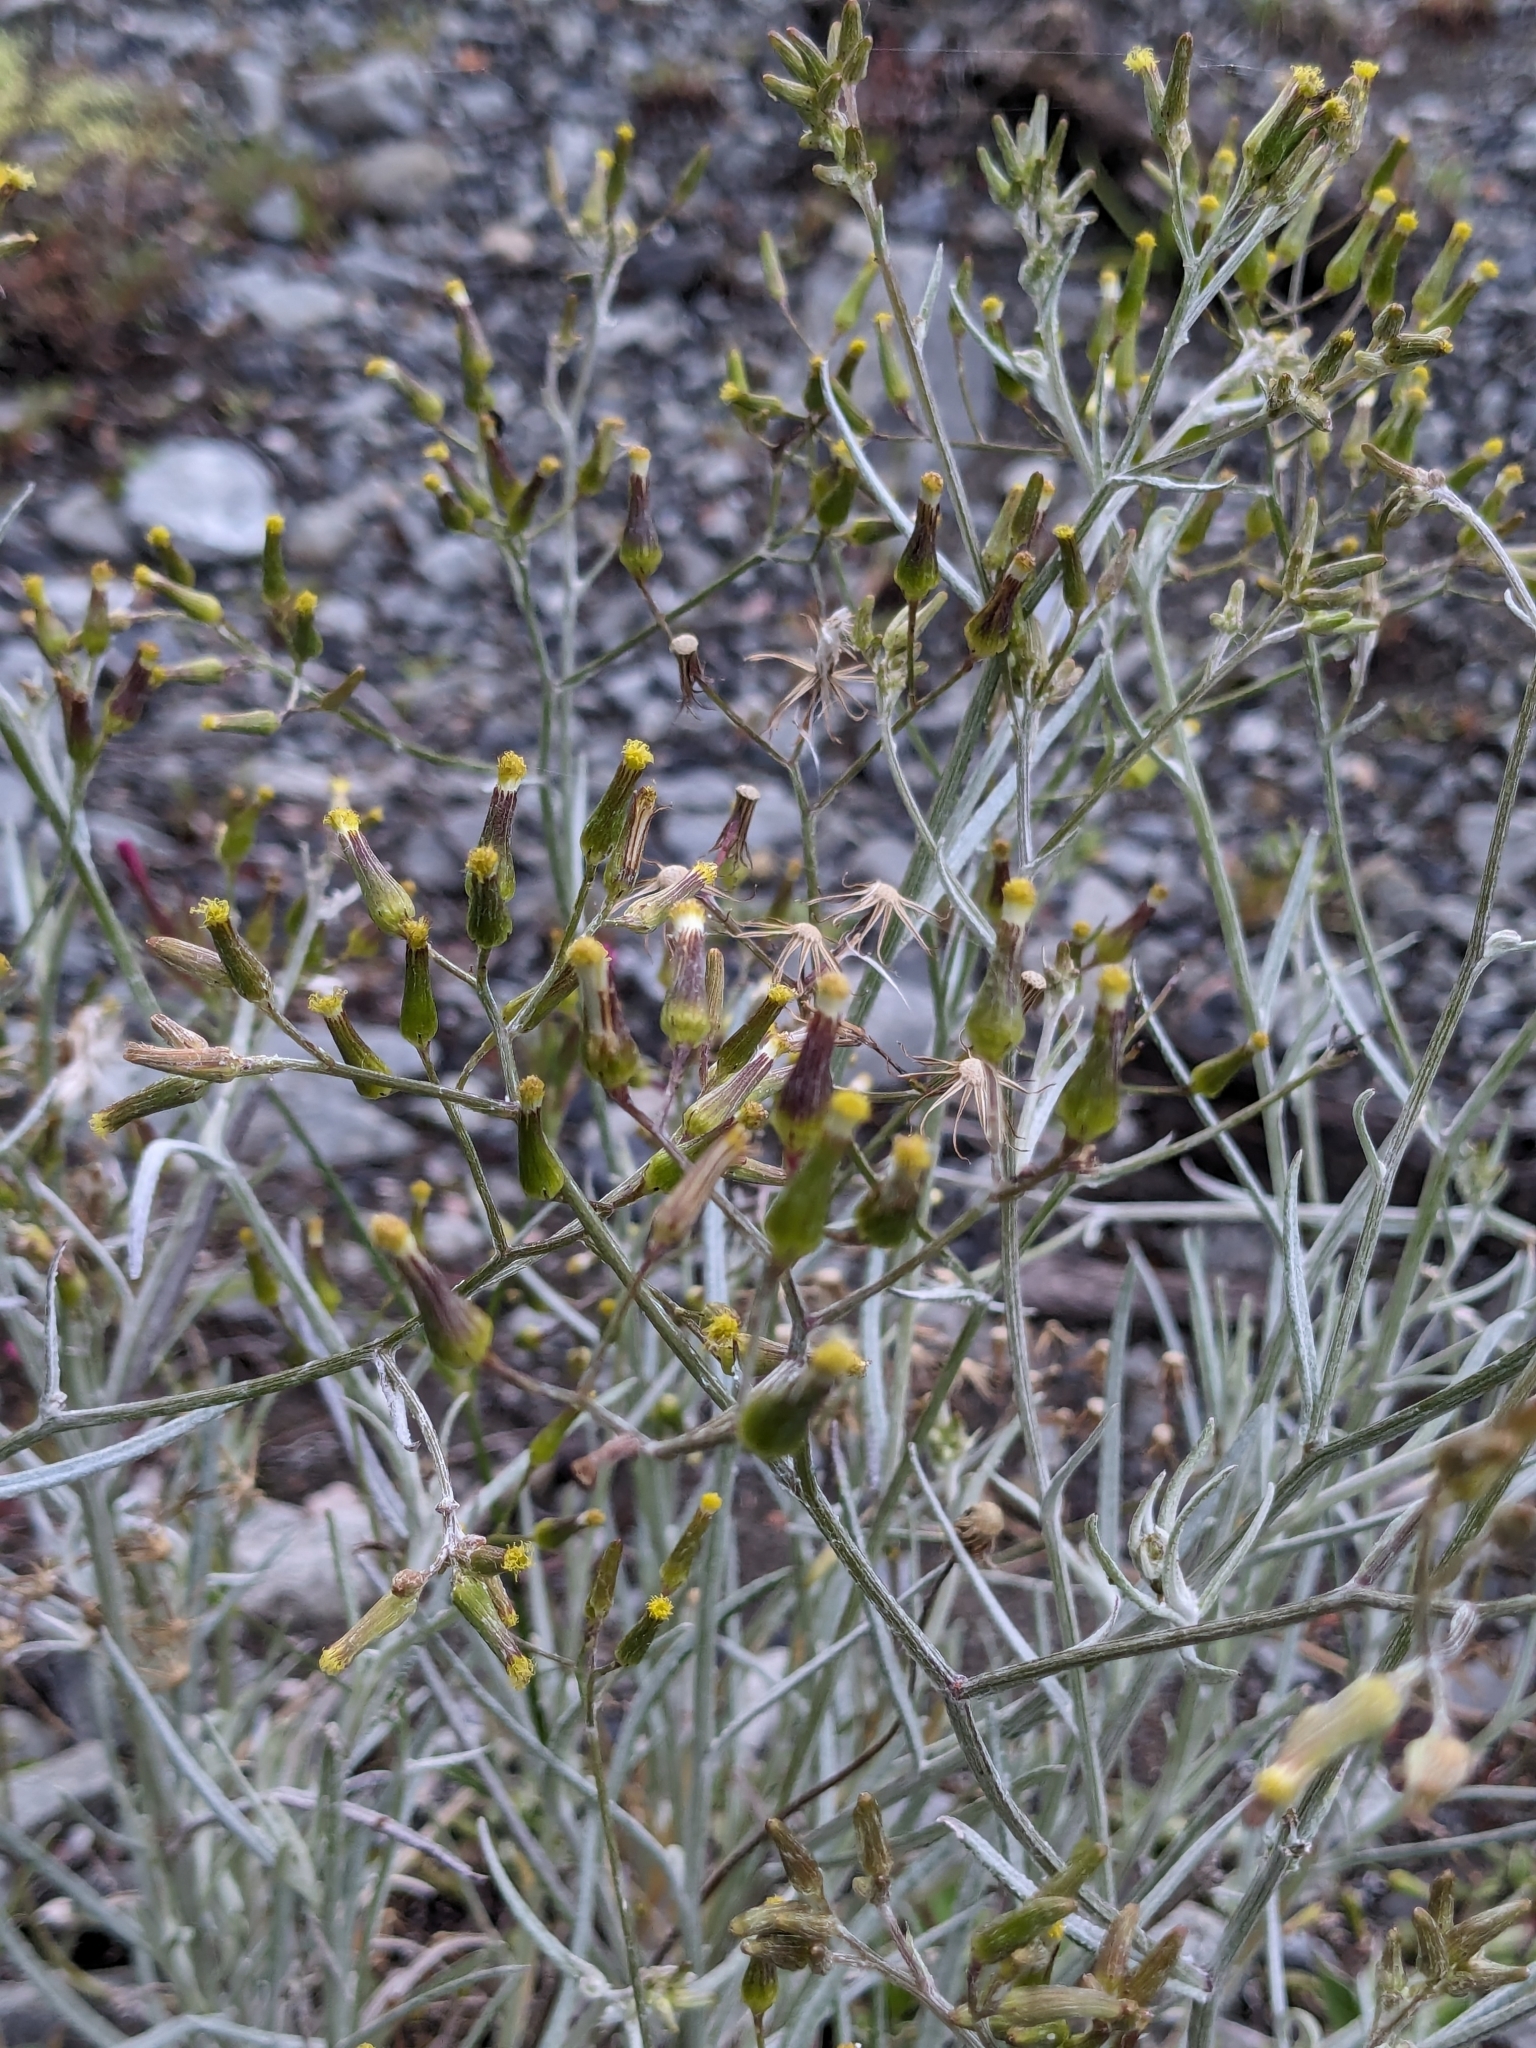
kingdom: Plantae
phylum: Tracheophyta
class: Magnoliopsida
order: Asterales
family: Asteraceae
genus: Senecio
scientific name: Senecio quadridentatus
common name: Cotton fireweed
